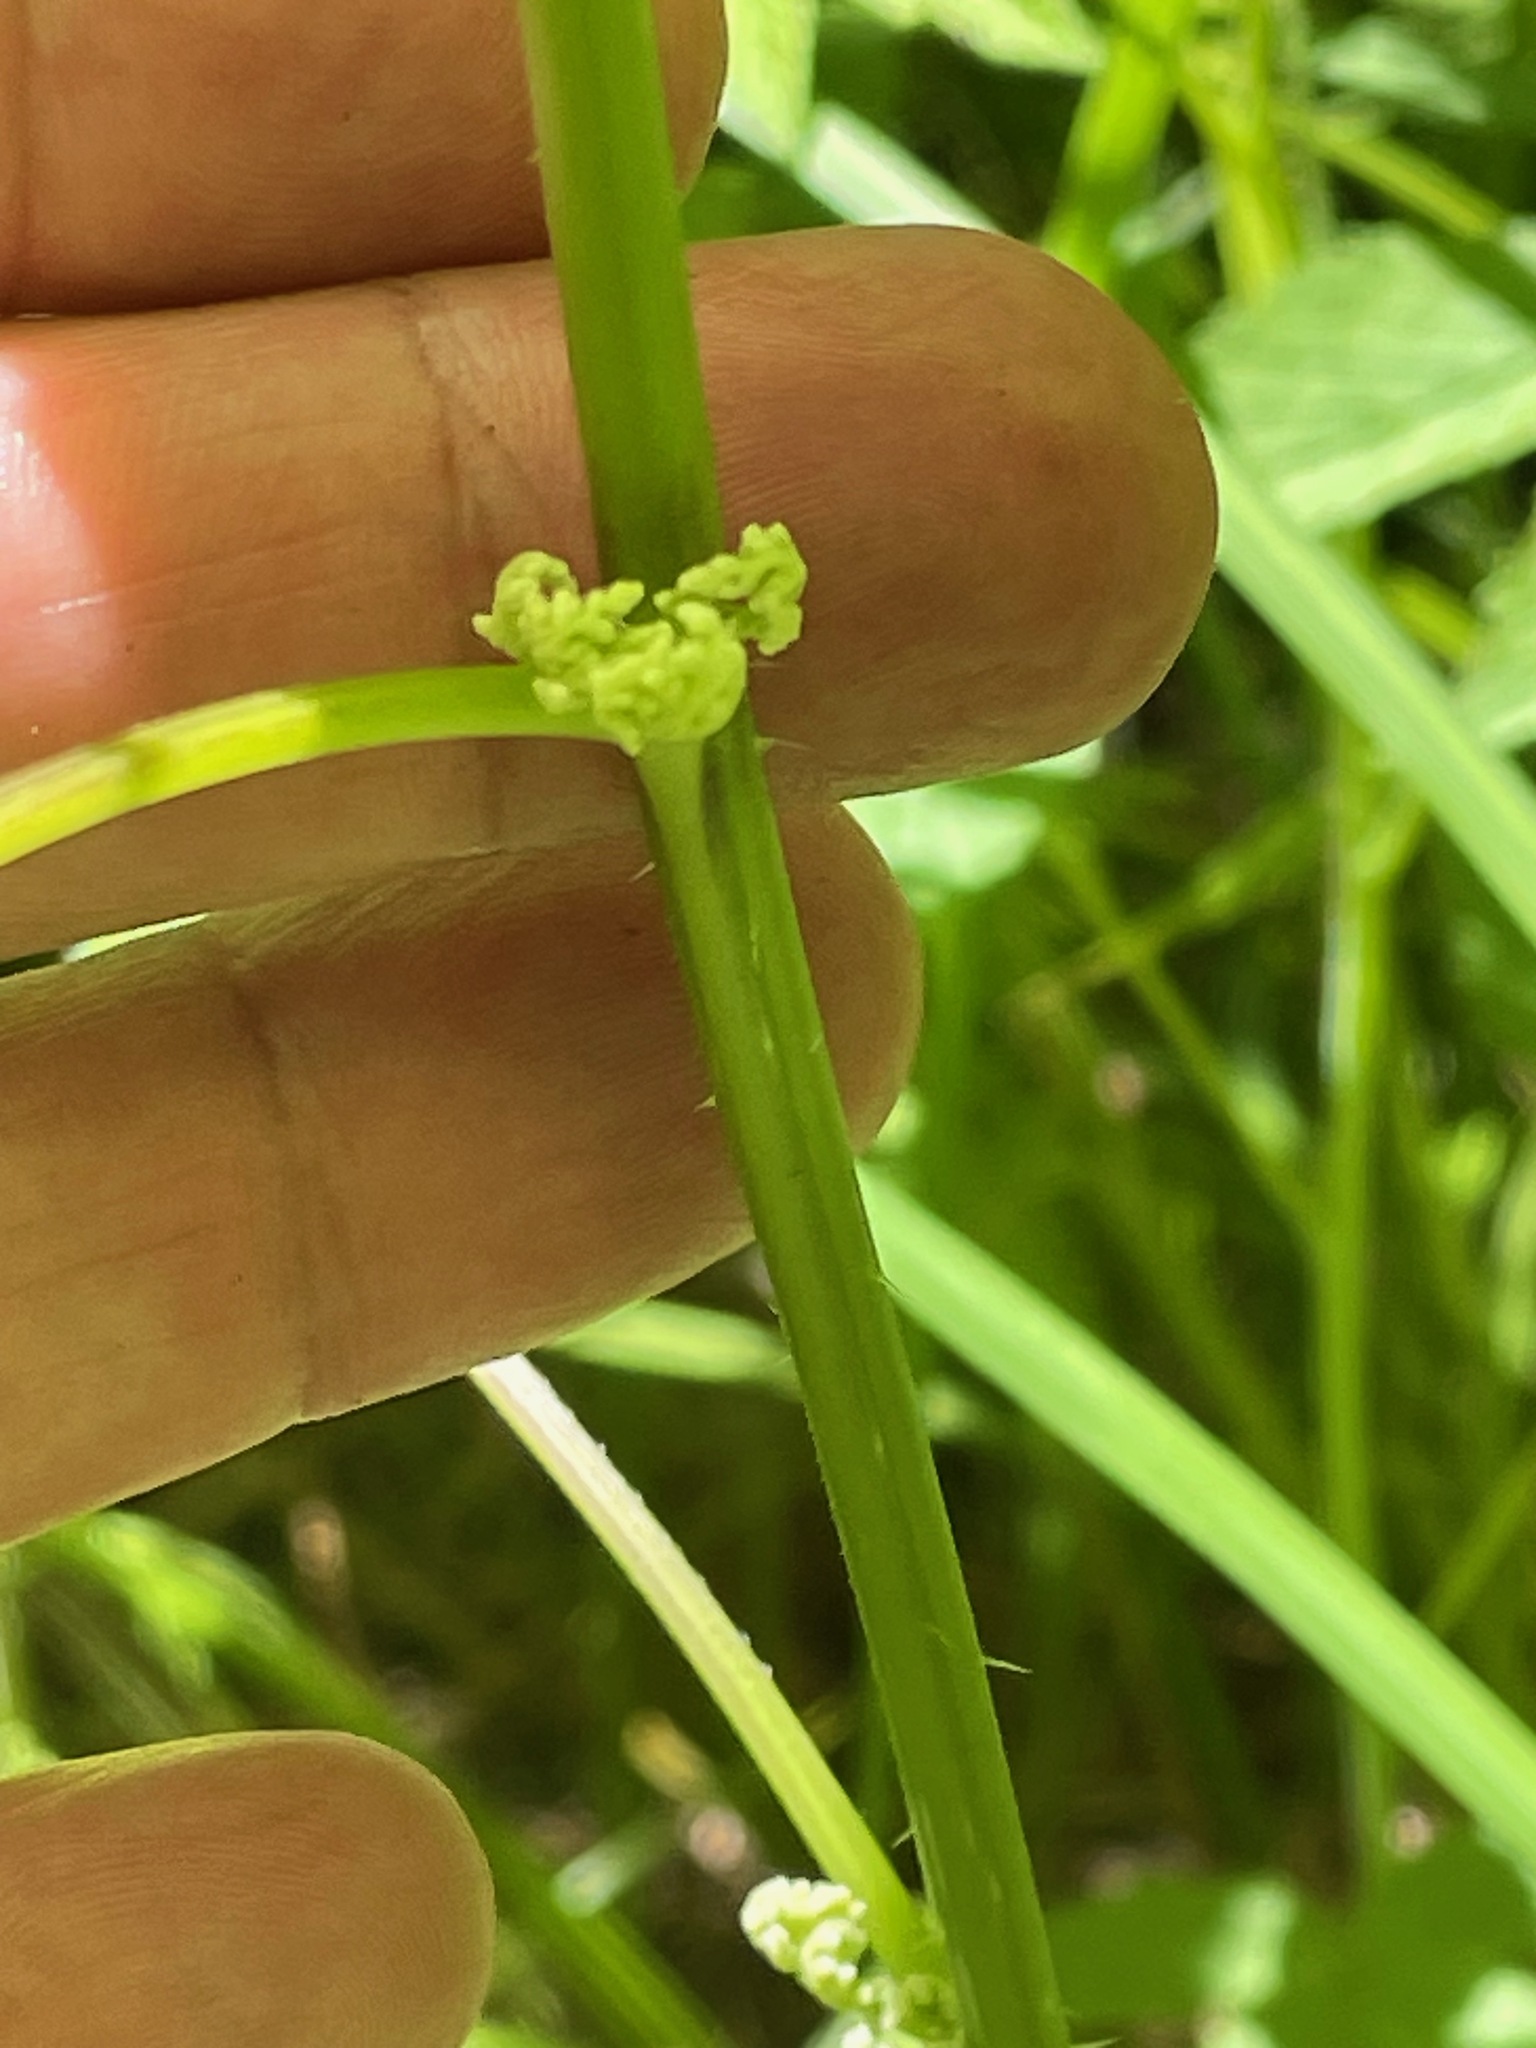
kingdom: Plantae
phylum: Tracheophyta
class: Magnoliopsida
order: Rosales
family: Urticaceae
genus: Laportea
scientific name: Laportea canadensis
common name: Canada nettle
